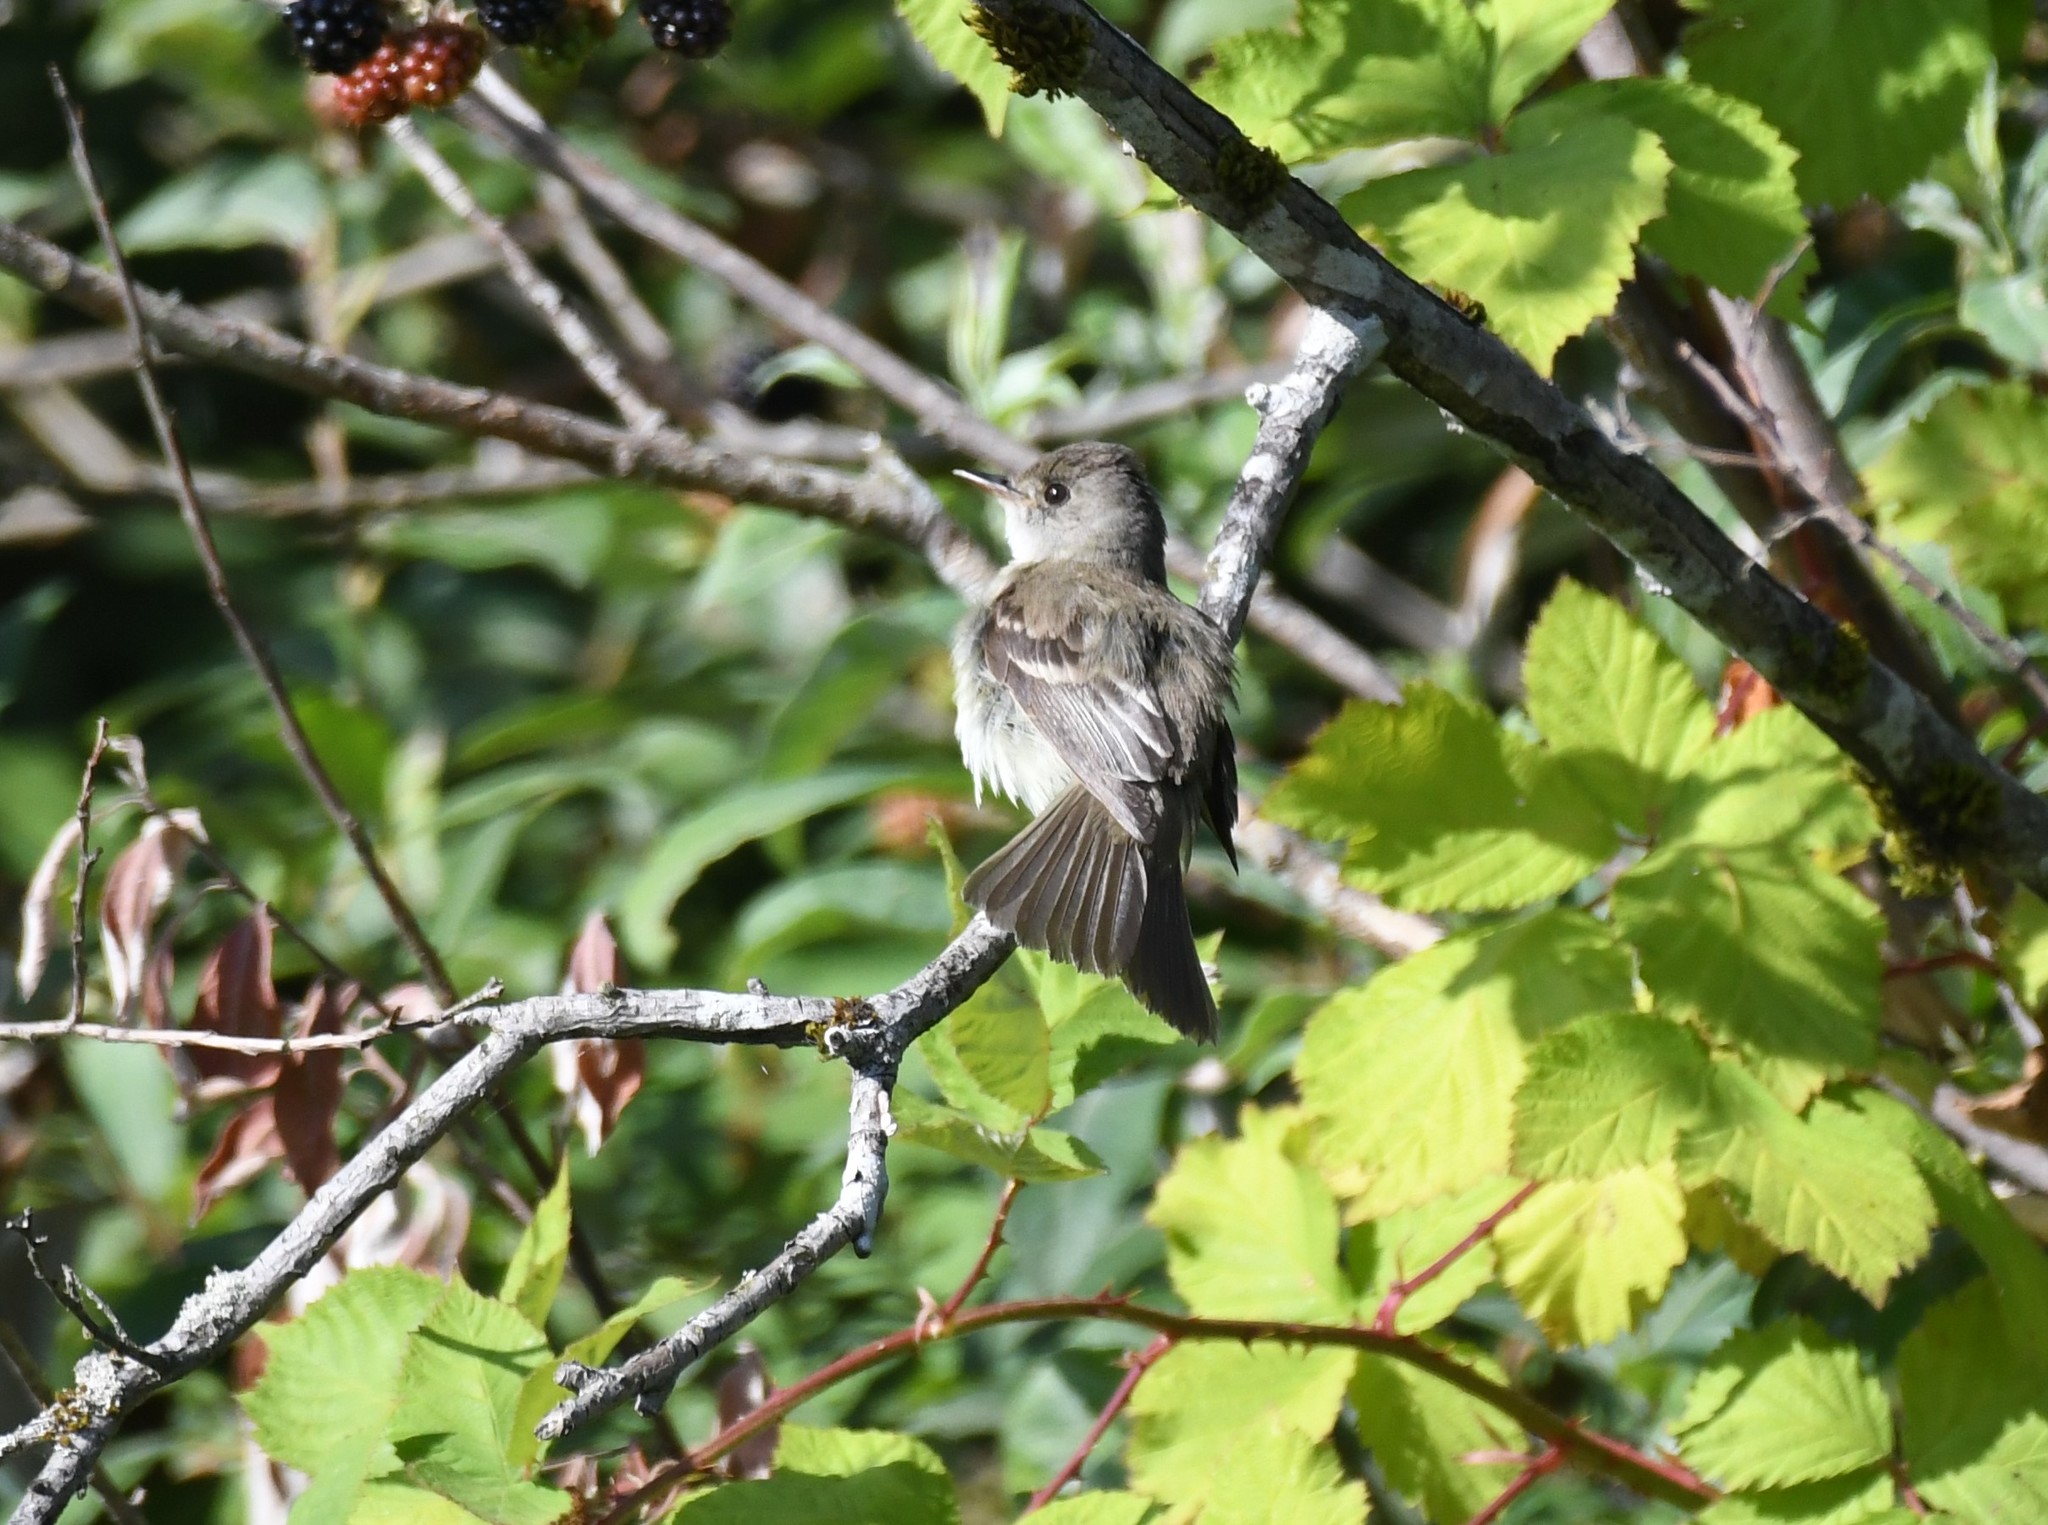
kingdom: Animalia
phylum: Chordata
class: Aves
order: Passeriformes
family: Tyrannidae
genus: Empidonax
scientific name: Empidonax traillii
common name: Willow flycatcher
